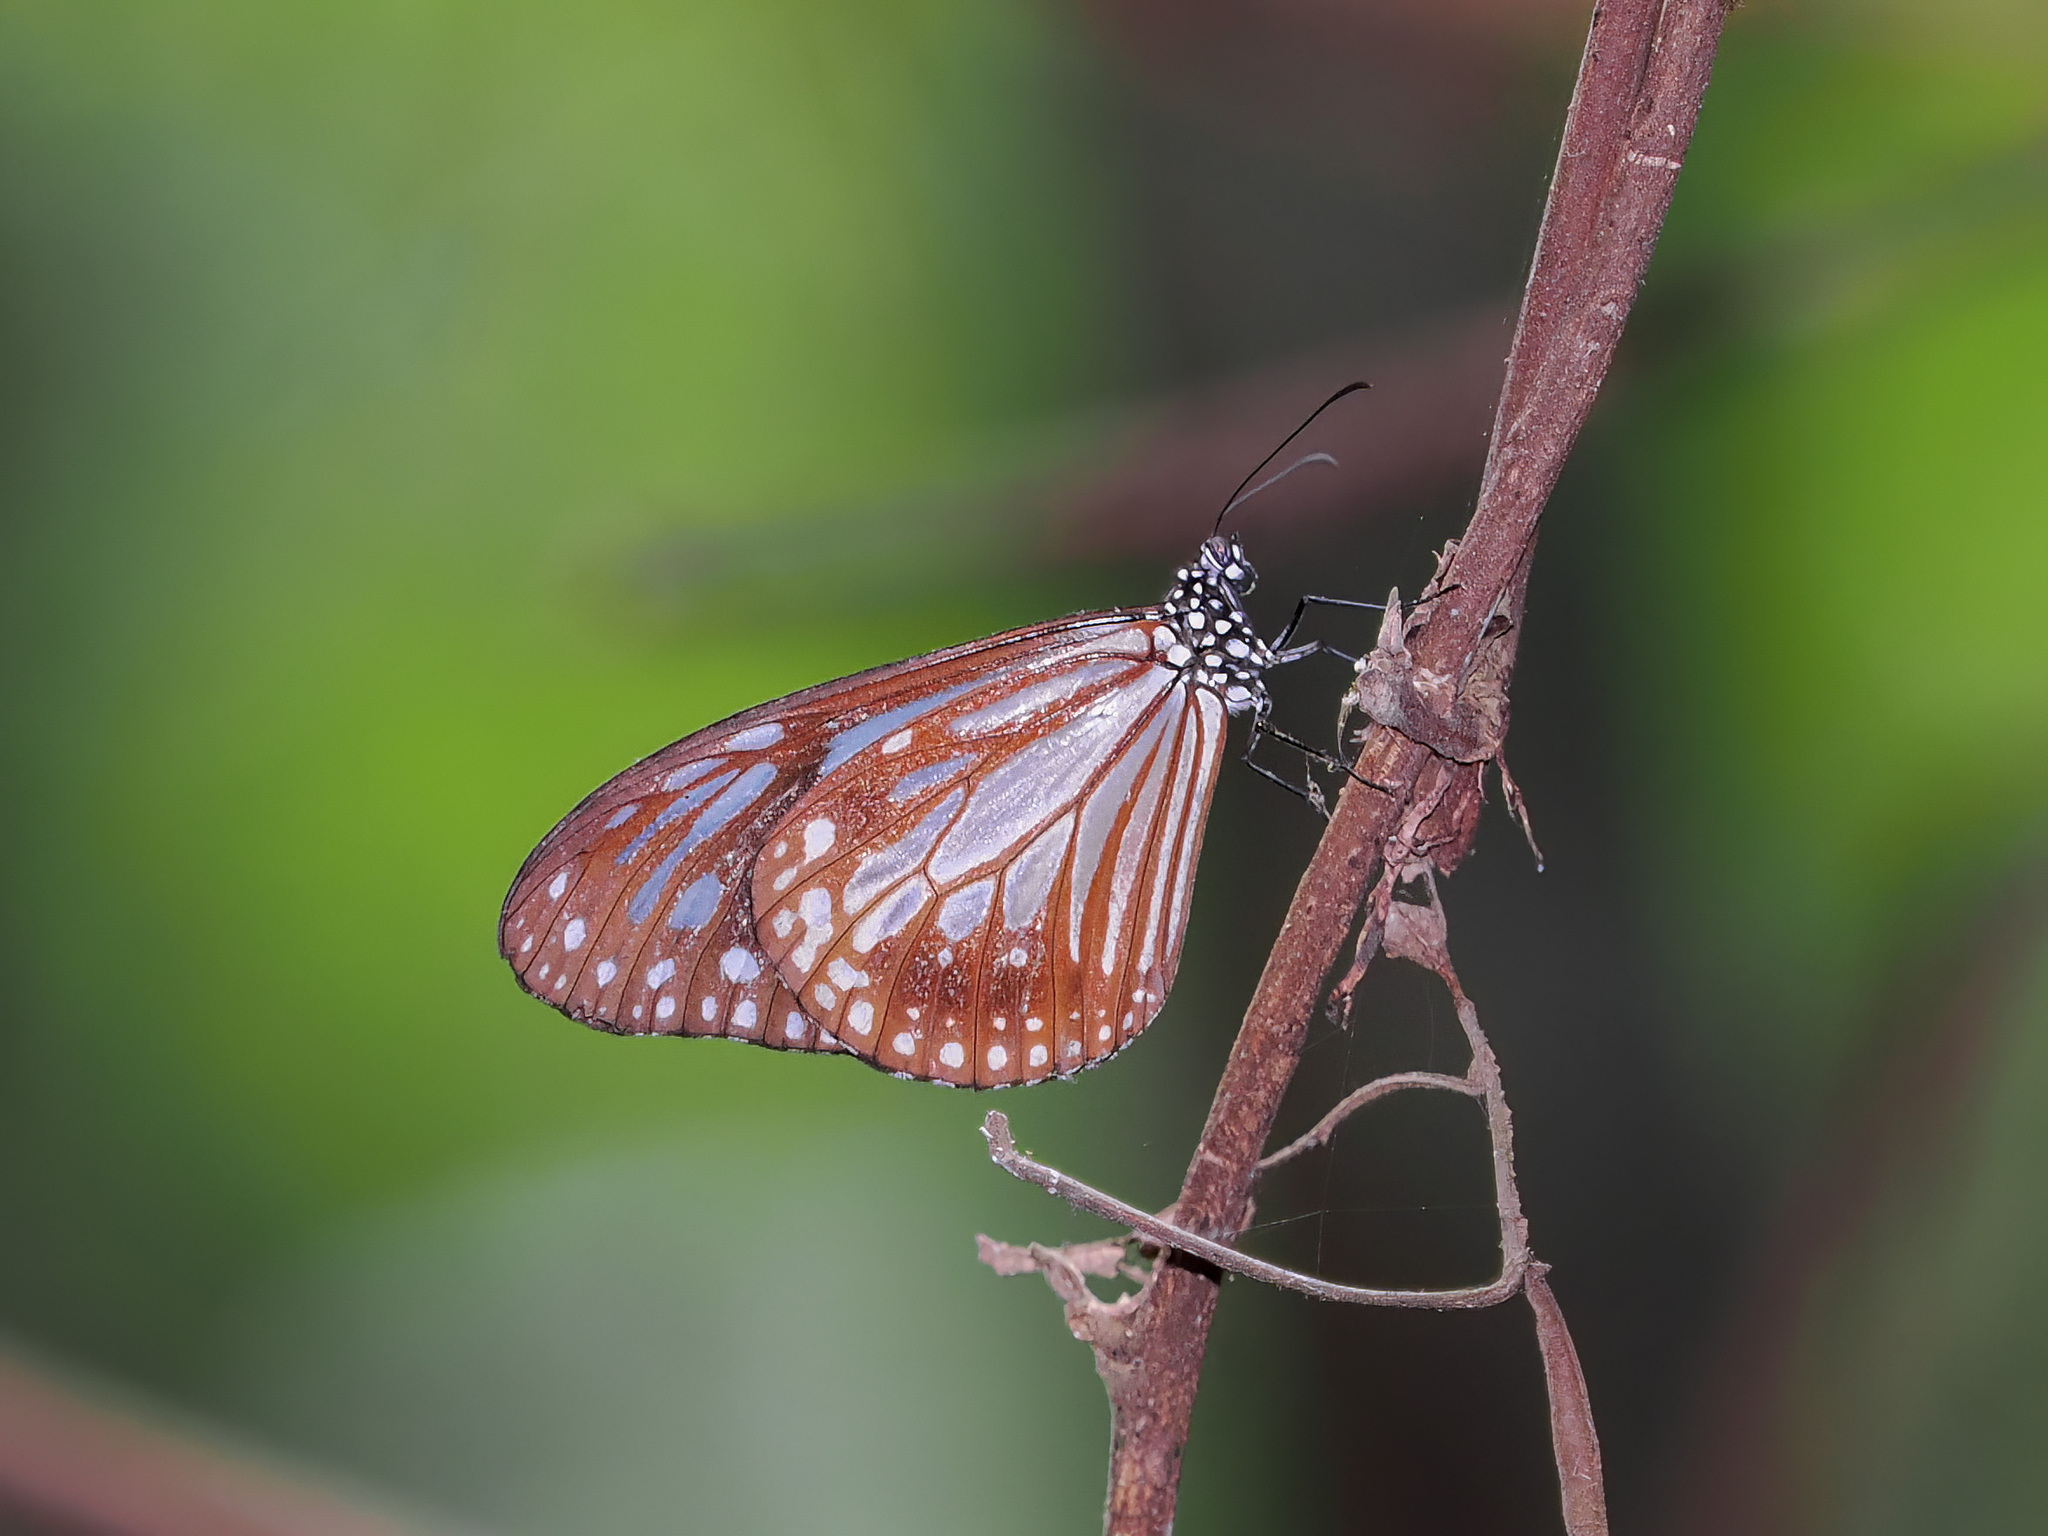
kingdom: Animalia
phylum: Arthropoda
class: Insecta
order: Lepidoptera
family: Nymphalidae
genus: Parantica
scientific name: Parantica melaneus
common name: Chocolate tiger
